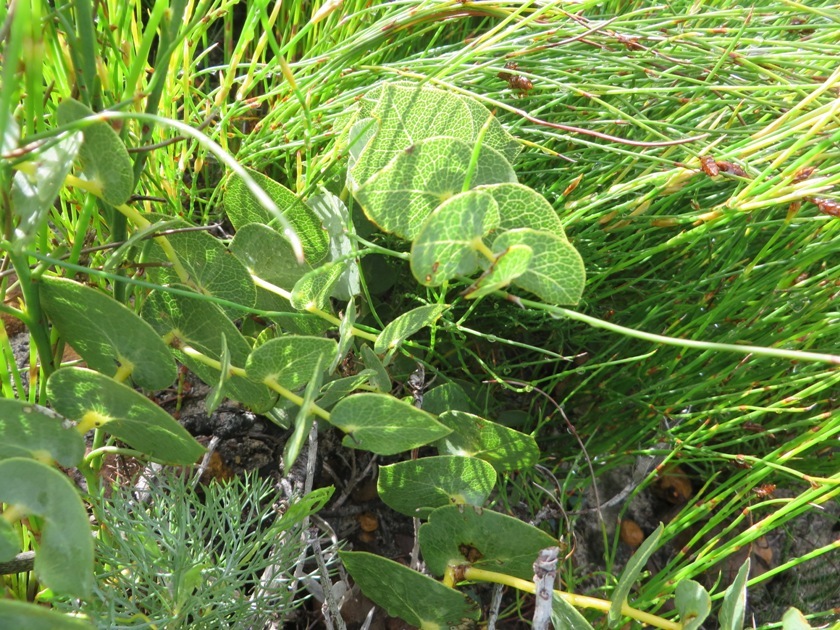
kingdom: Plantae
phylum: Tracheophyta
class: Magnoliopsida
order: Fabales
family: Fabaceae
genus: Rafnia
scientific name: Rafnia acuminata
